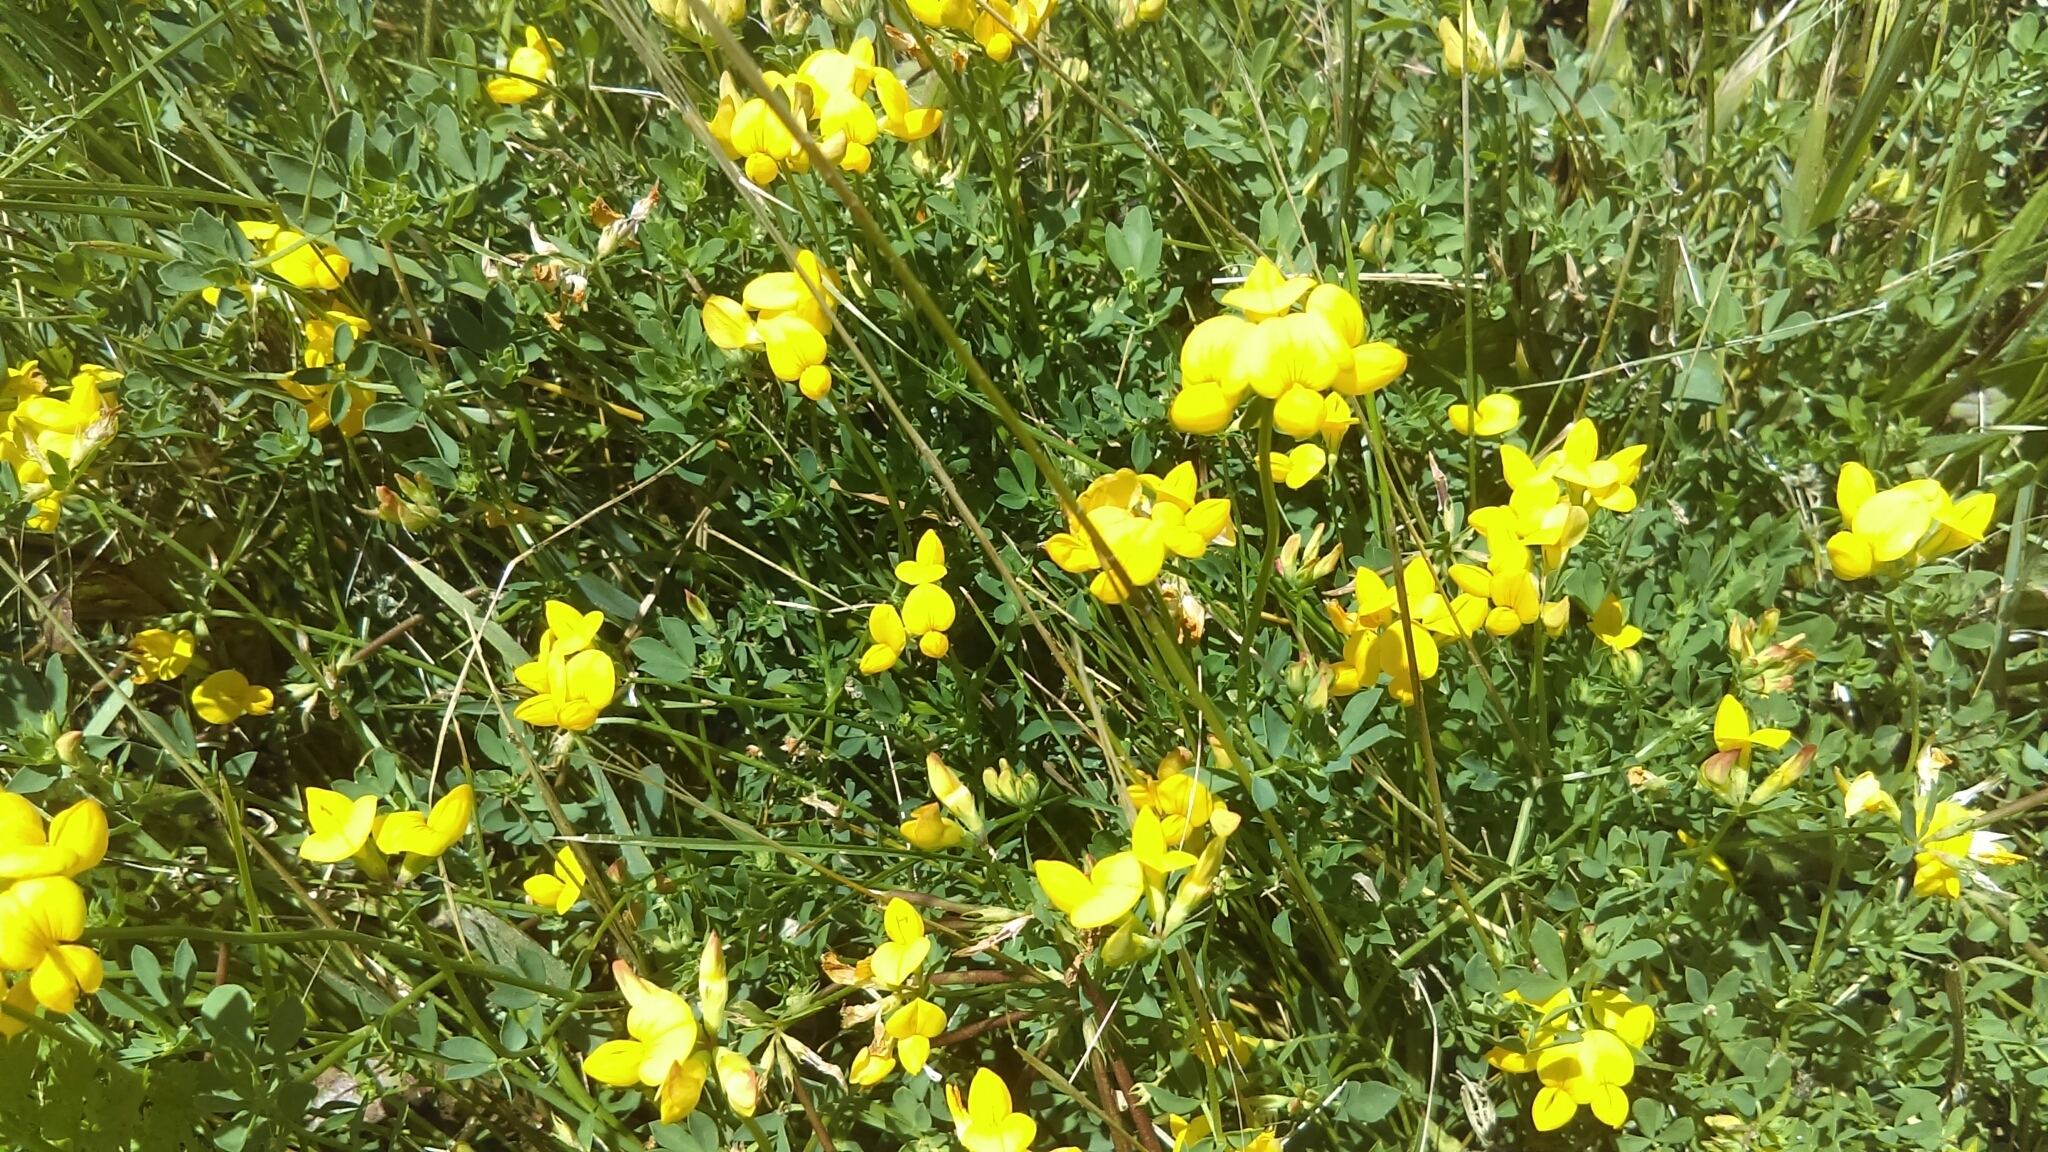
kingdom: Plantae
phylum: Tracheophyta
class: Magnoliopsida
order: Fabales
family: Fabaceae
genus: Lotus
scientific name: Lotus corniculatus
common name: Common bird's-foot-trefoil
